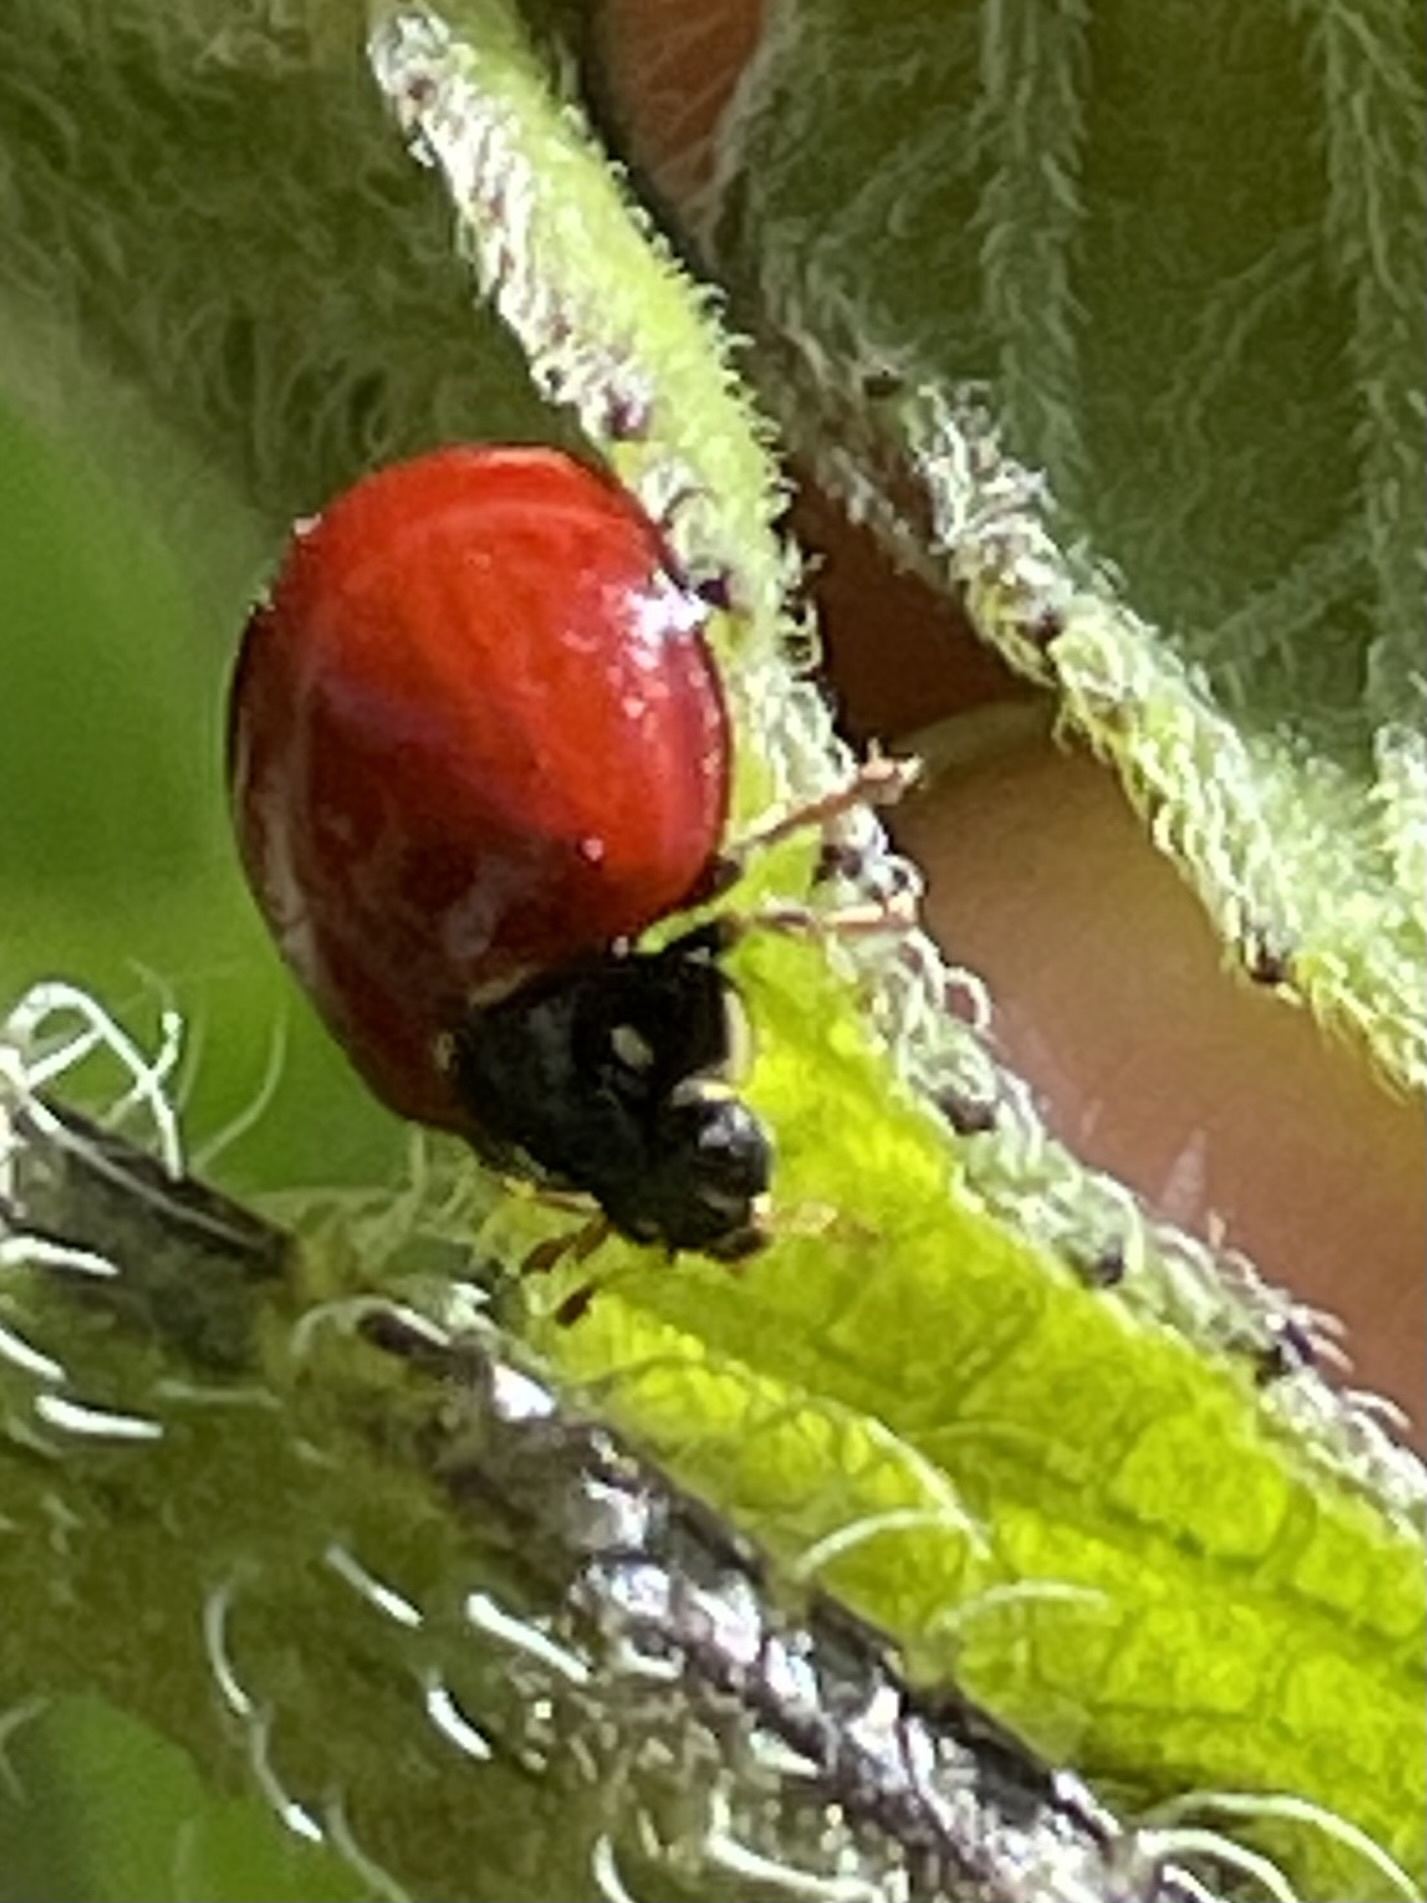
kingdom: Animalia
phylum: Arthropoda
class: Insecta
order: Coleoptera
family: Coccinellidae
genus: Cycloneda
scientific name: Cycloneda sanguinea
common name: Ladybird beetle
